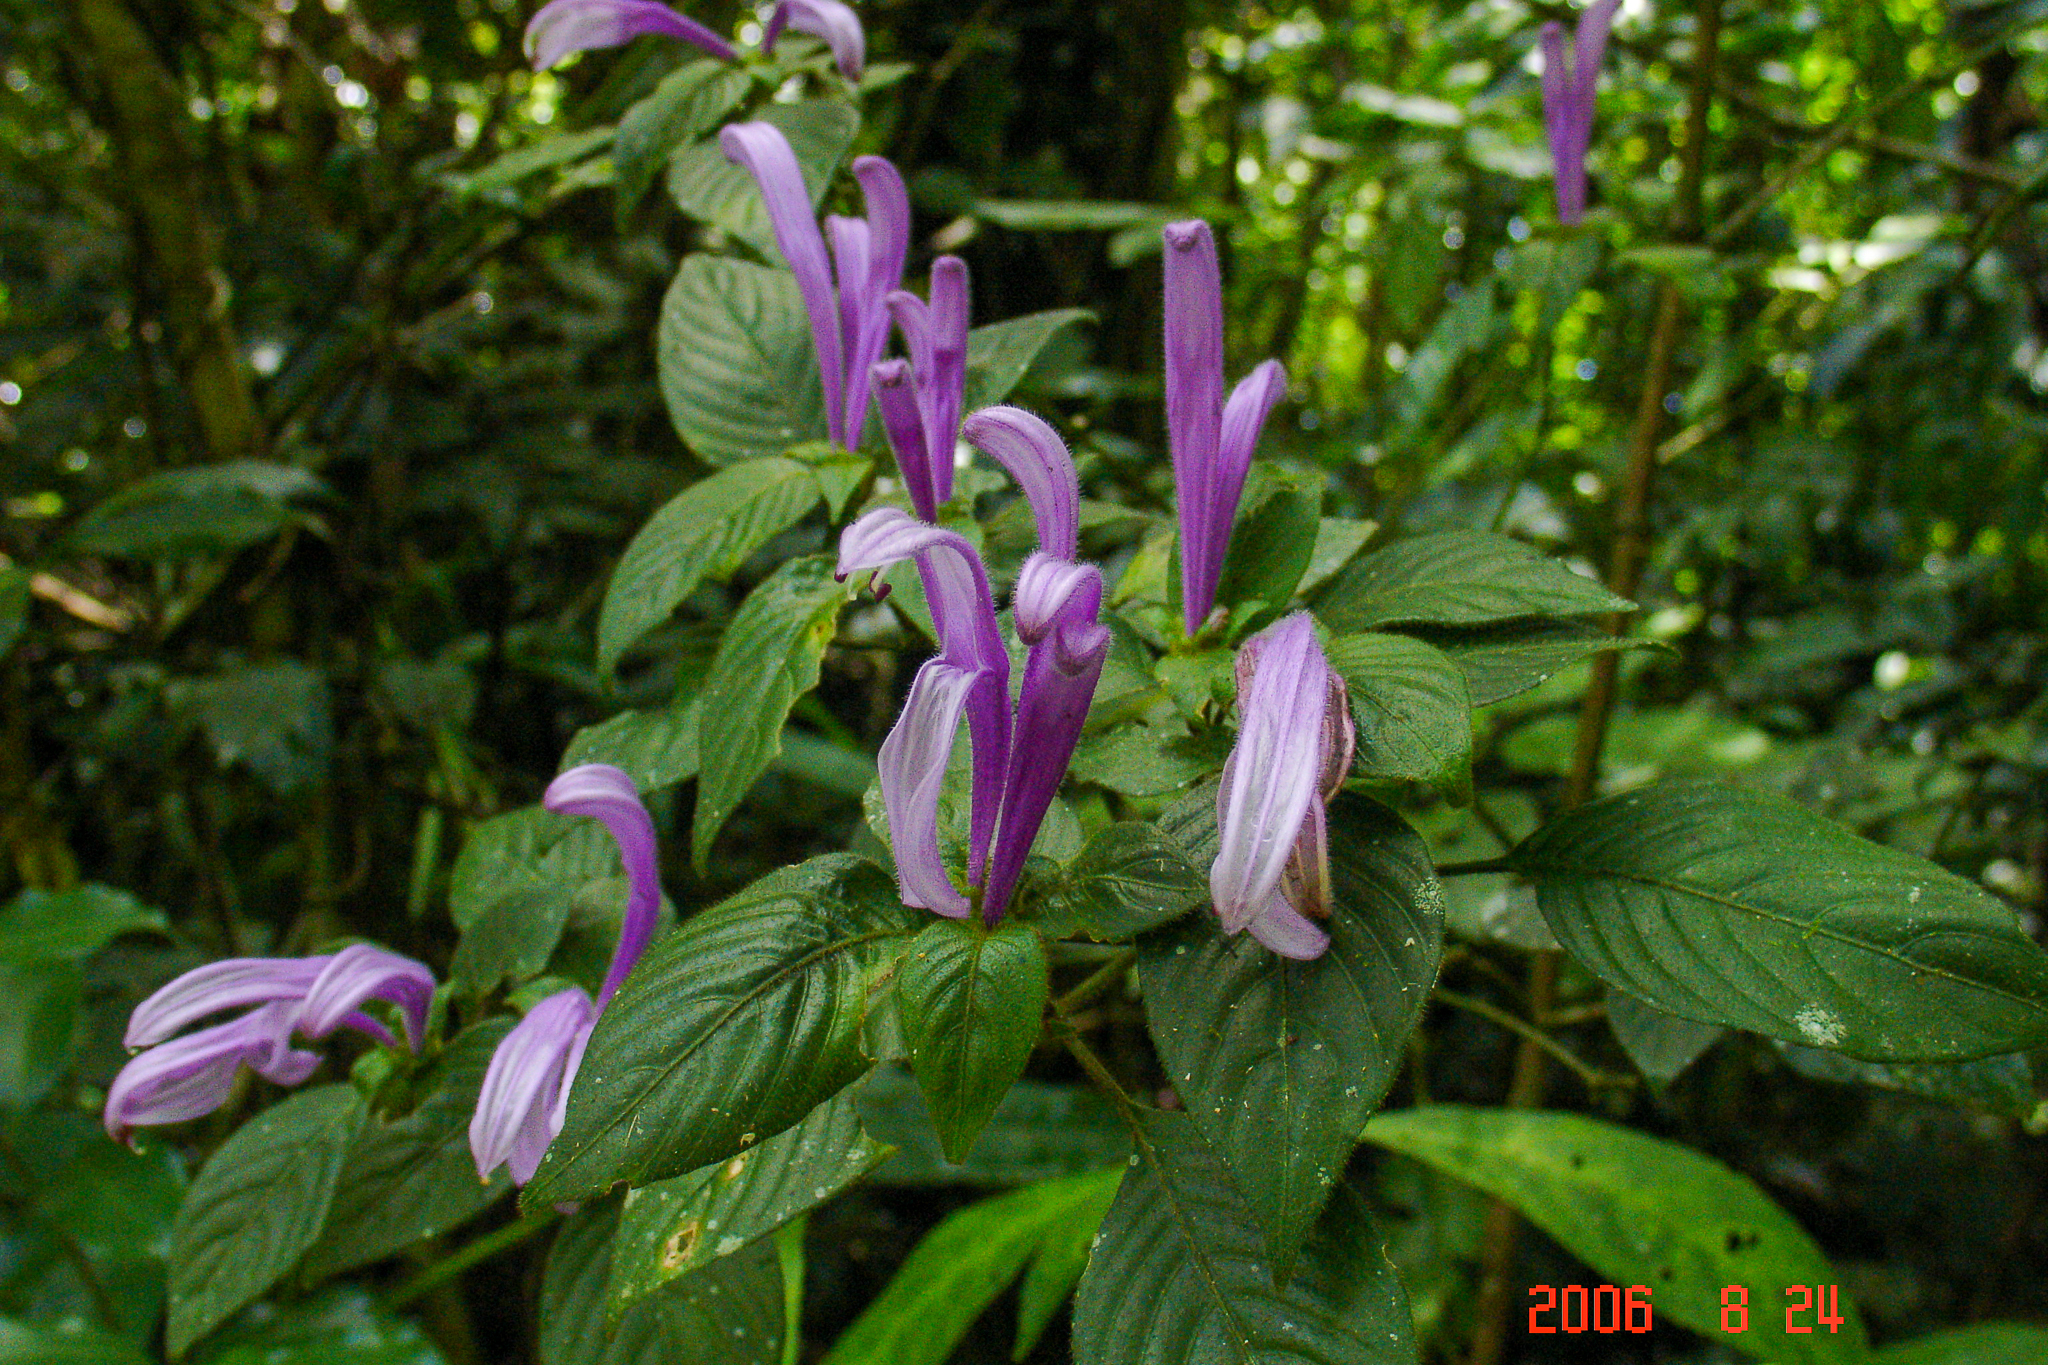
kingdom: Plantae
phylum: Tracheophyta
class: Magnoliopsida
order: Lamiales
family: Acanthaceae
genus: Poikilacanthus
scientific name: Poikilacanthus macranthus
